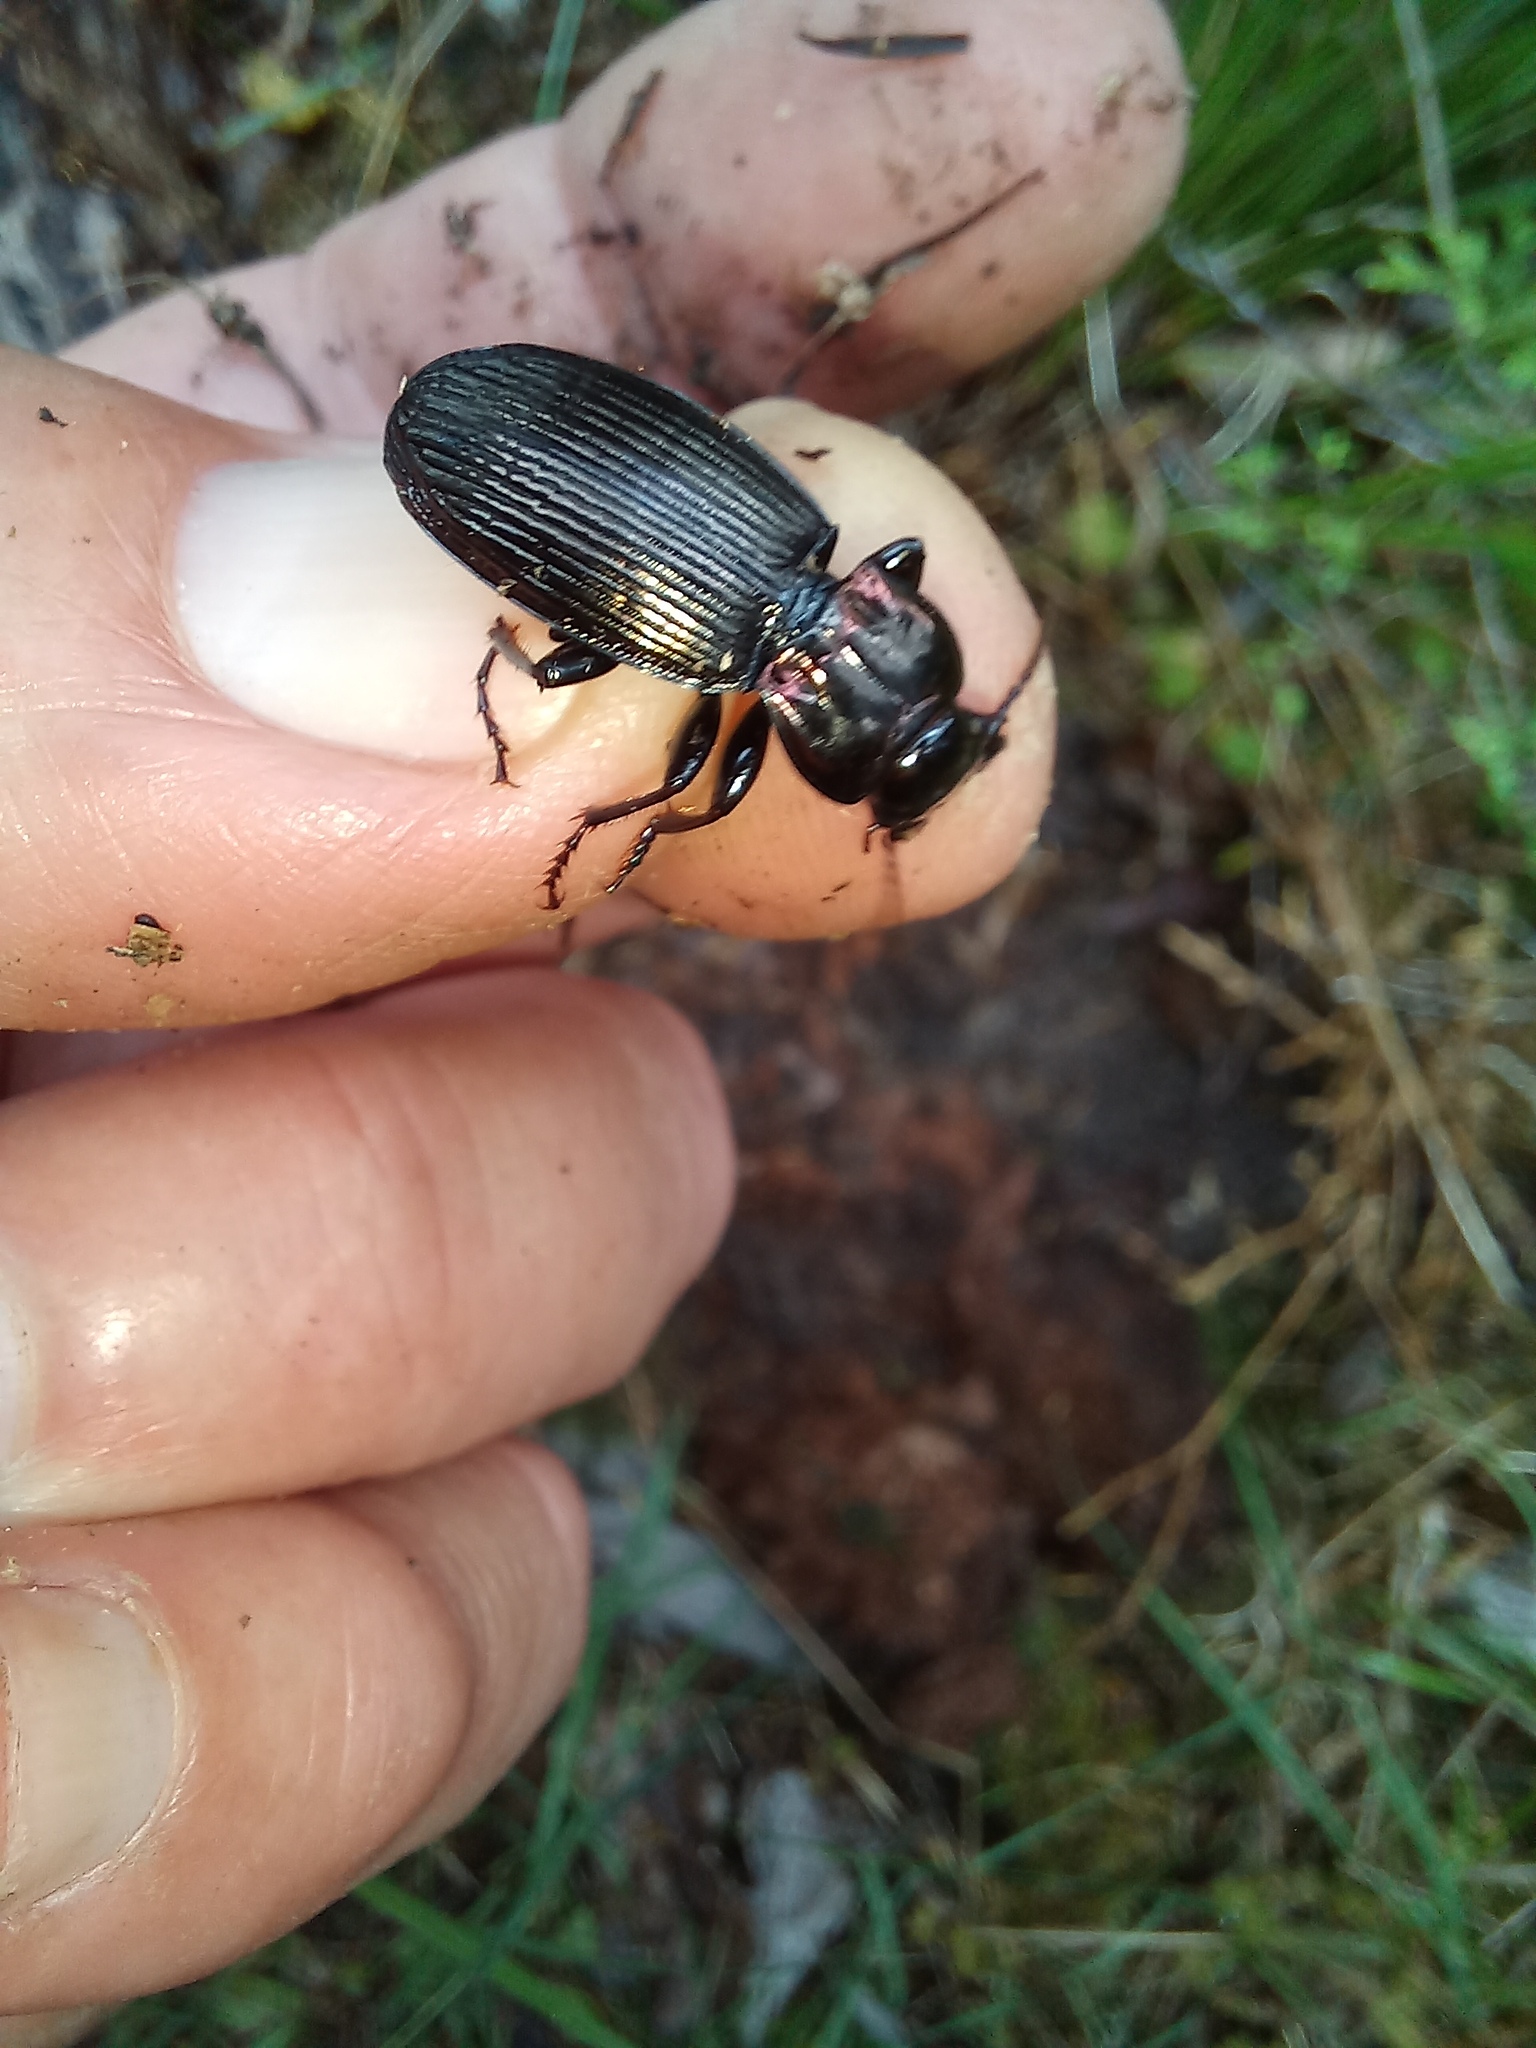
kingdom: Animalia
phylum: Arthropoda
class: Insecta
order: Coleoptera
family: Carabidae
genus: Zeopoecilus
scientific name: Zeopoecilus calcaratus
